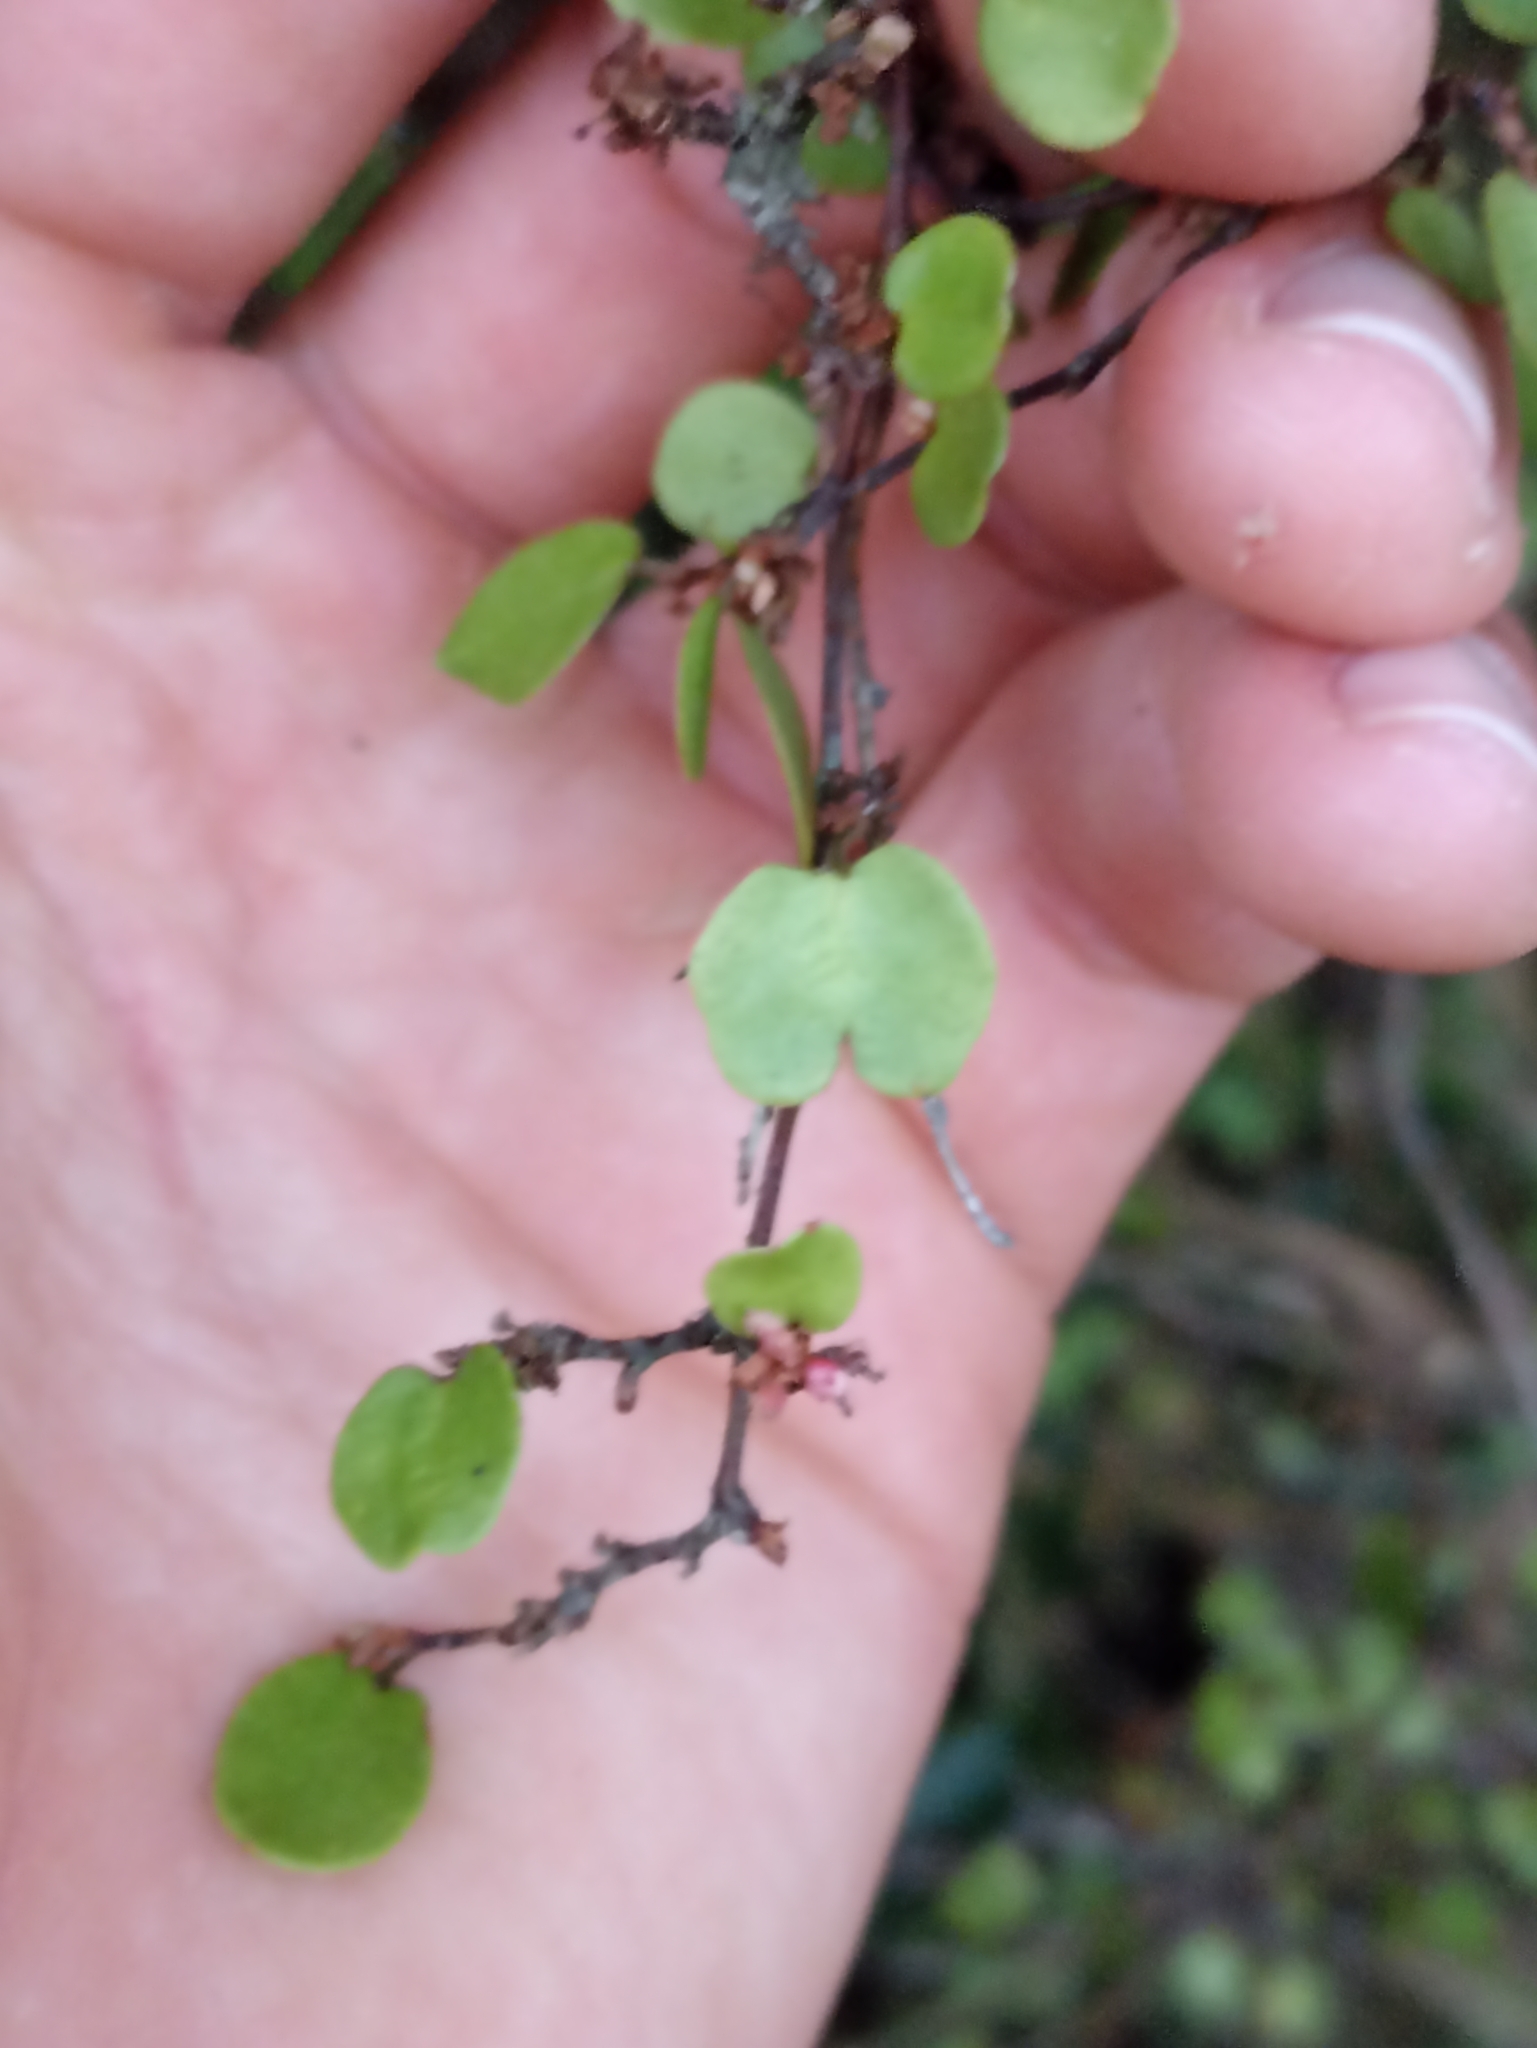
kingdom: Plantae
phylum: Tracheophyta
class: Magnoliopsida
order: Caryophyllales
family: Polygonaceae
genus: Muehlenbeckia
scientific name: Muehlenbeckia complexa
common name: Wireplant
